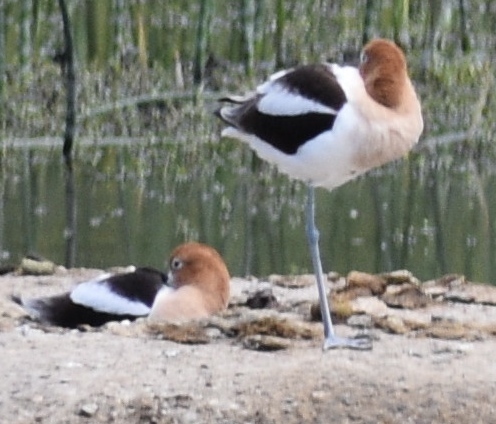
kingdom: Animalia
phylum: Chordata
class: Aves
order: Charadriiformes
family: Recurvirostridae
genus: Recurvirostra
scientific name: Recurvirostra americana
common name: American avocet
